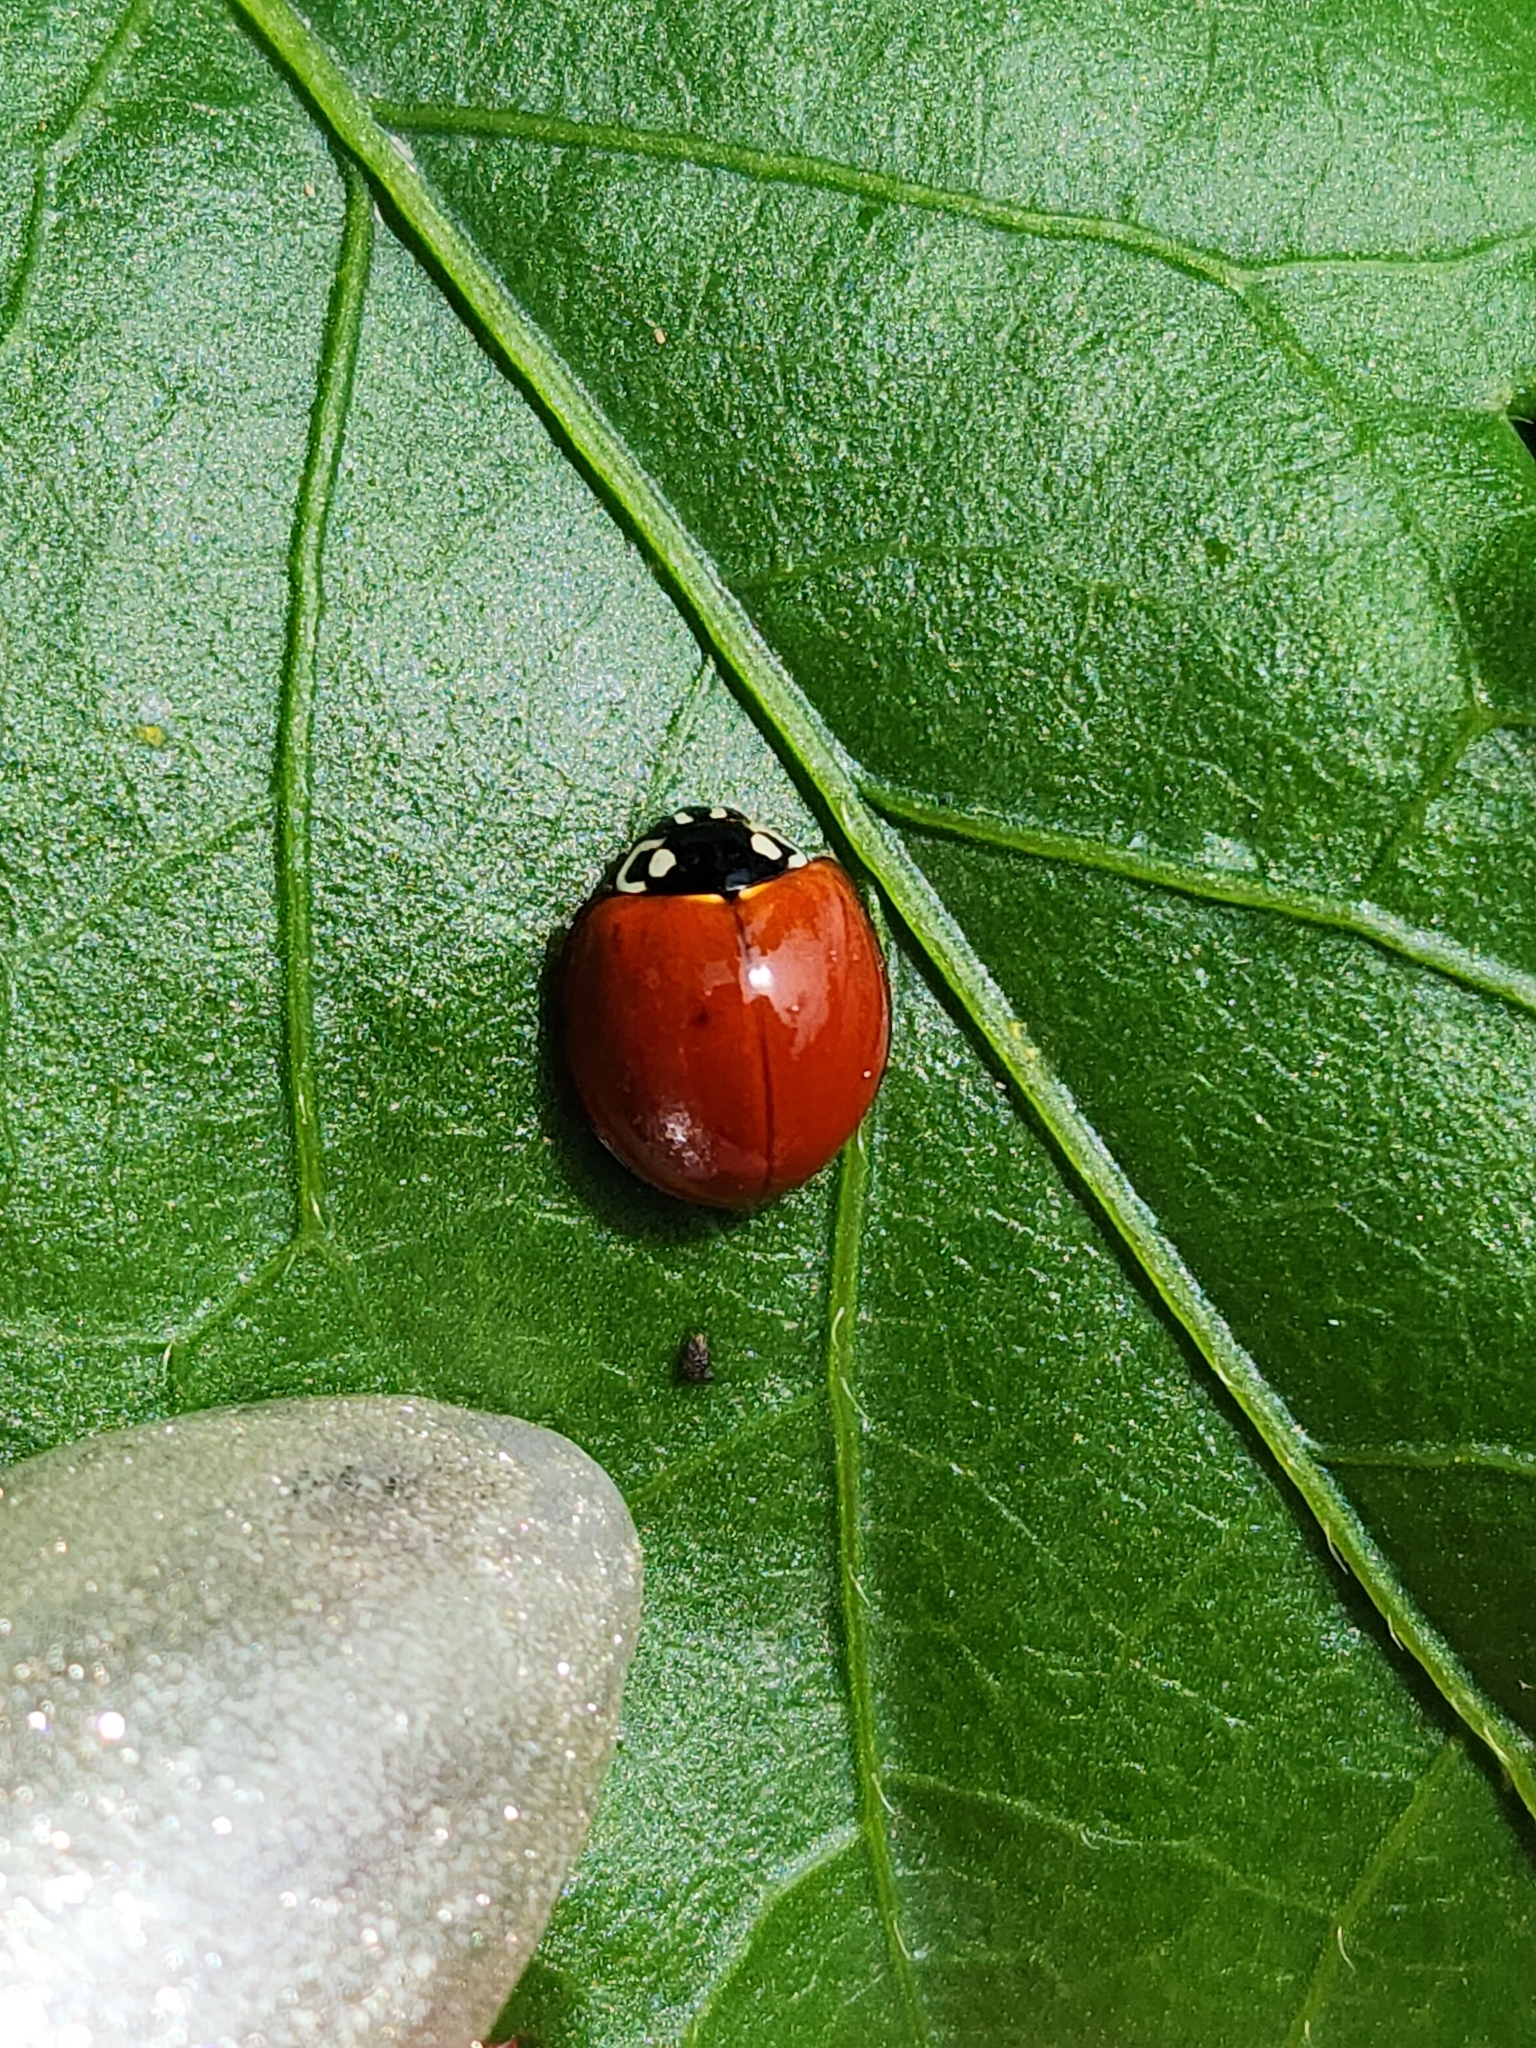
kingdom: Animalia
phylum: Arthropoda
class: Insecta
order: Coleoptera
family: Coccinellidae
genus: Cycloneda
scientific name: Cycloneda sanguinea
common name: Ladybird beetle
